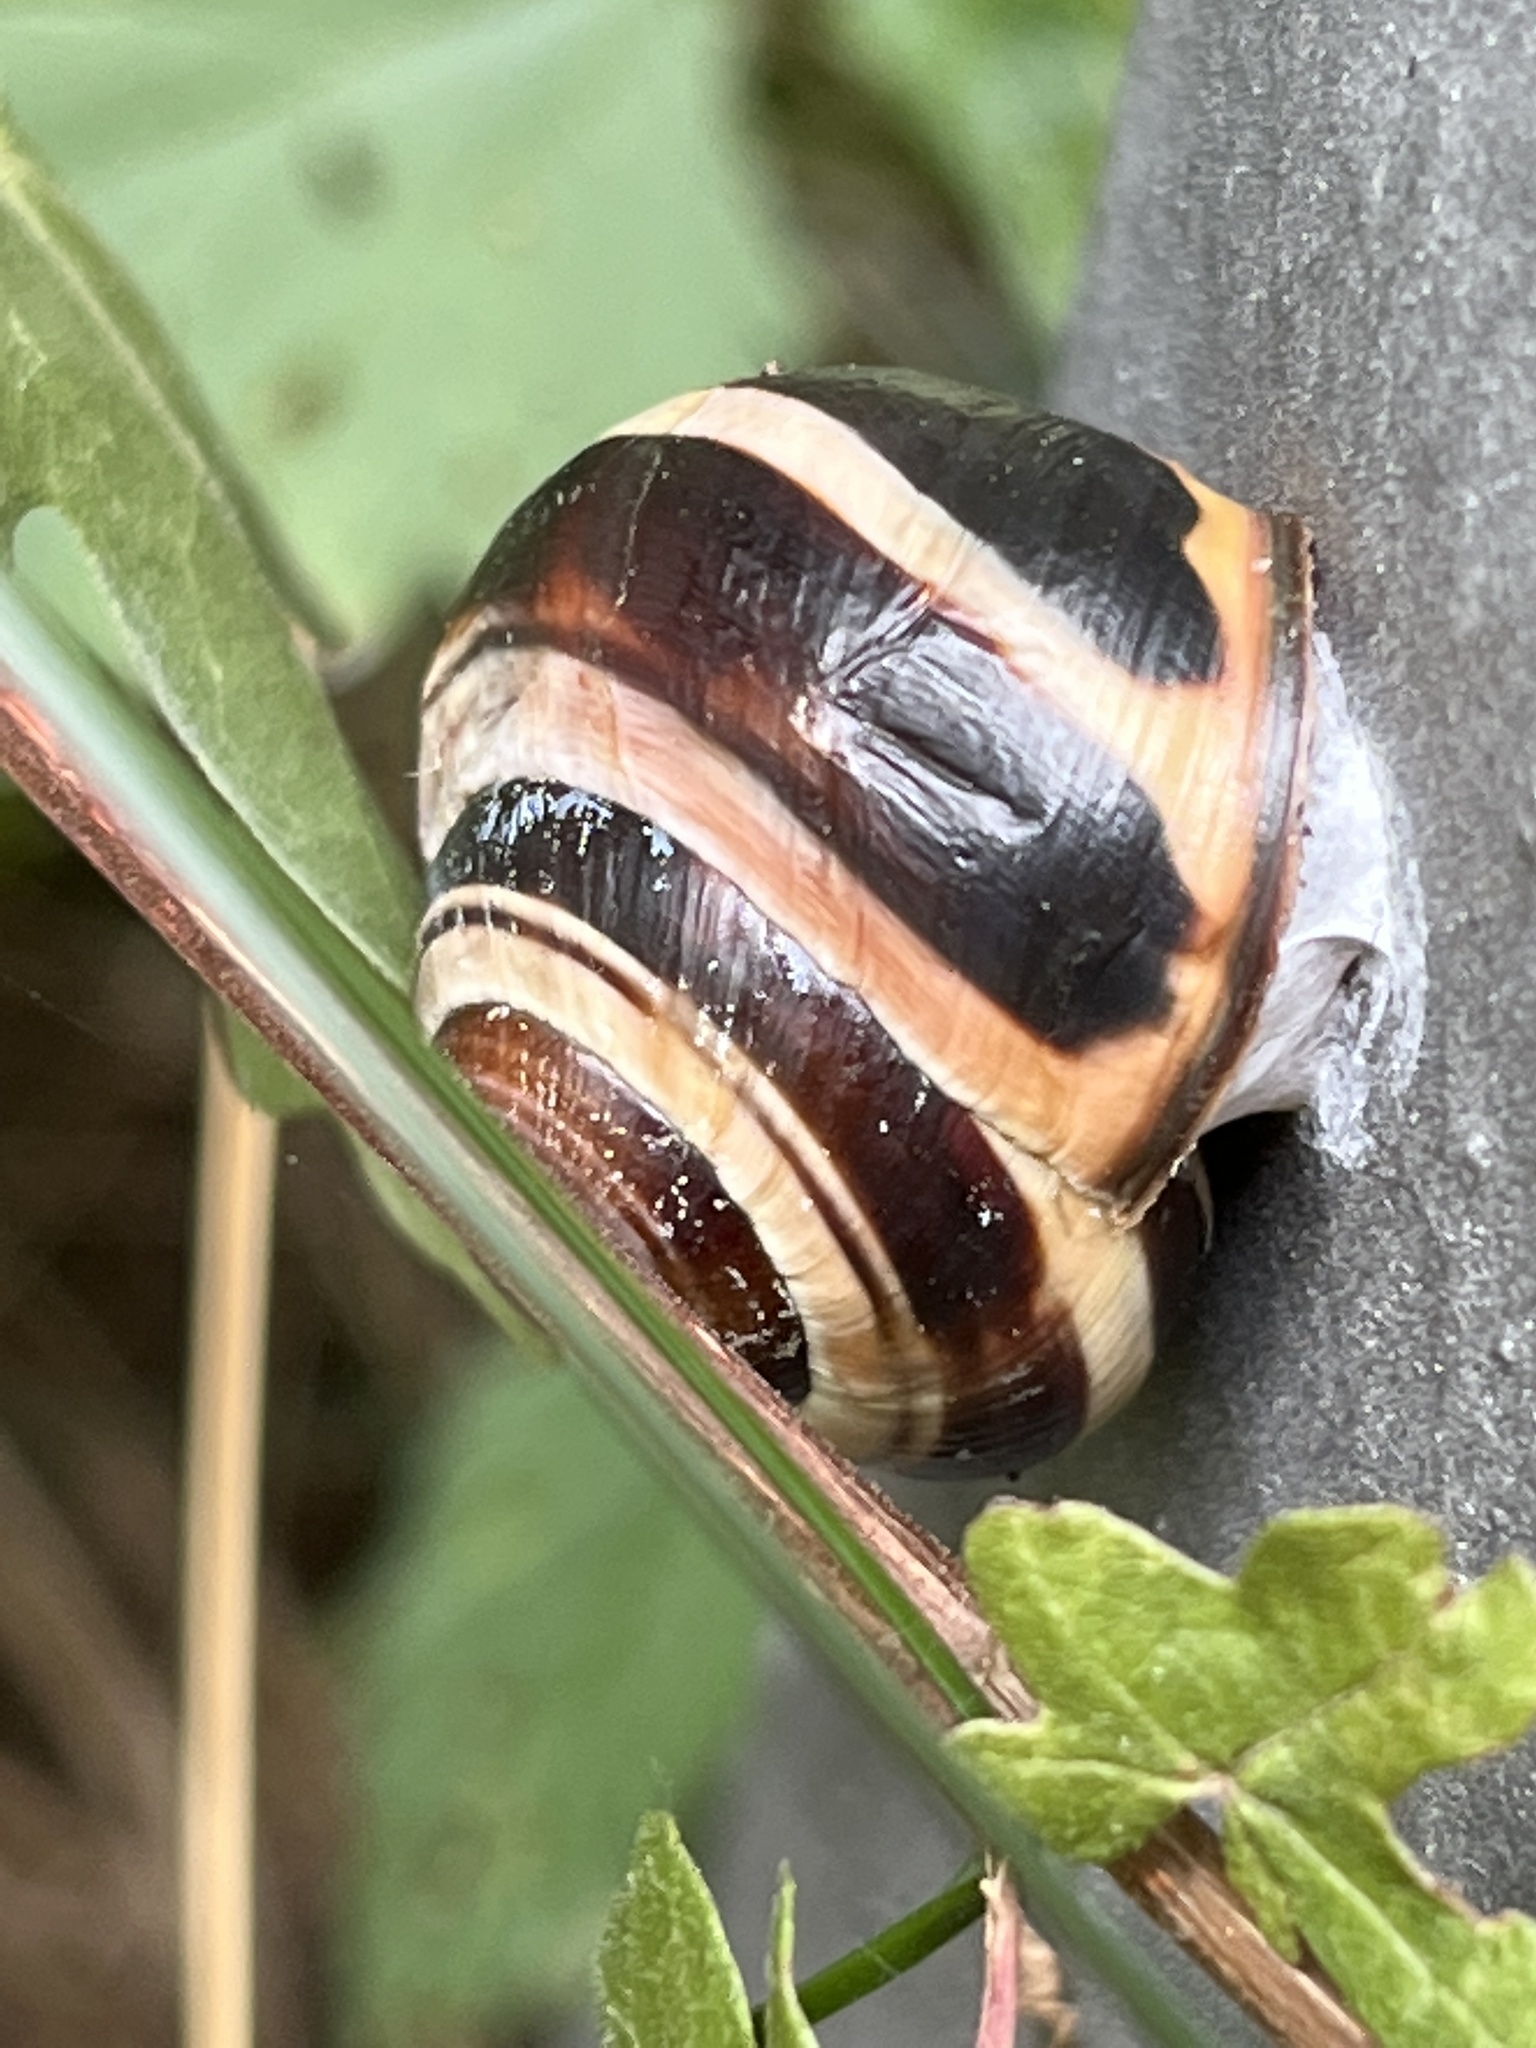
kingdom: Animalia
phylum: Mollusca
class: Gastropoda
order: Stylommatophora
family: Helicidae
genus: Cepaea
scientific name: Cepaea nemoralis
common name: Grovesnail
